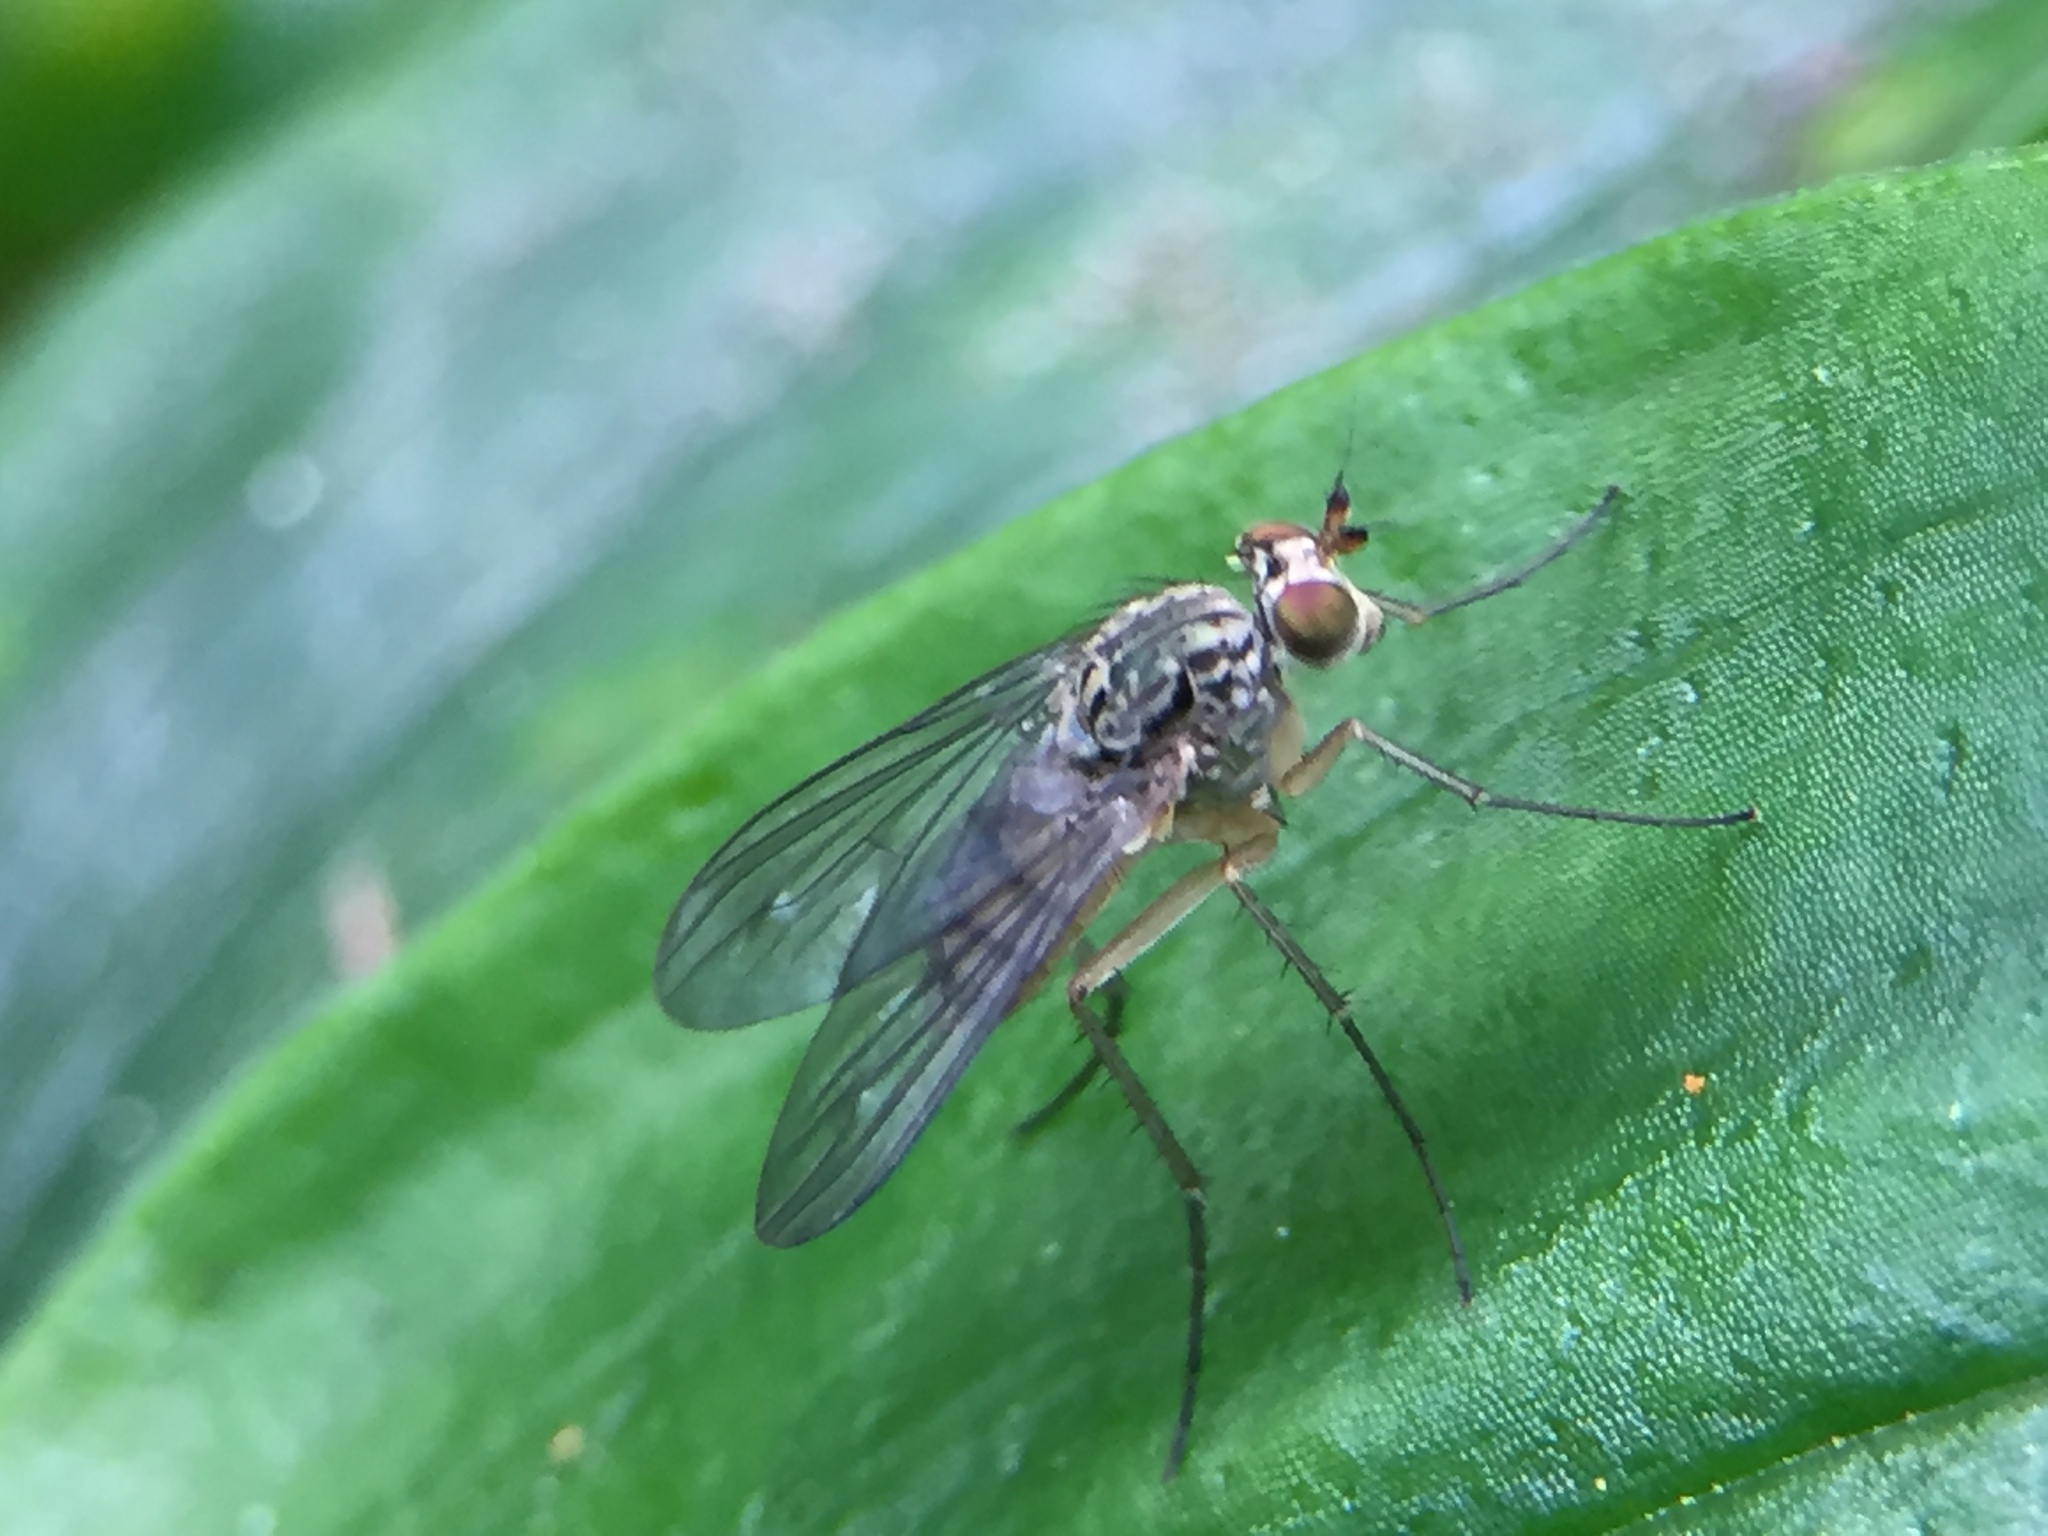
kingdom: Animalia
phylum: Arthropoda
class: Insecta
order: Diptera
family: Dolichopodidae
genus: Dactylonotus
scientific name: Dactylonotus
